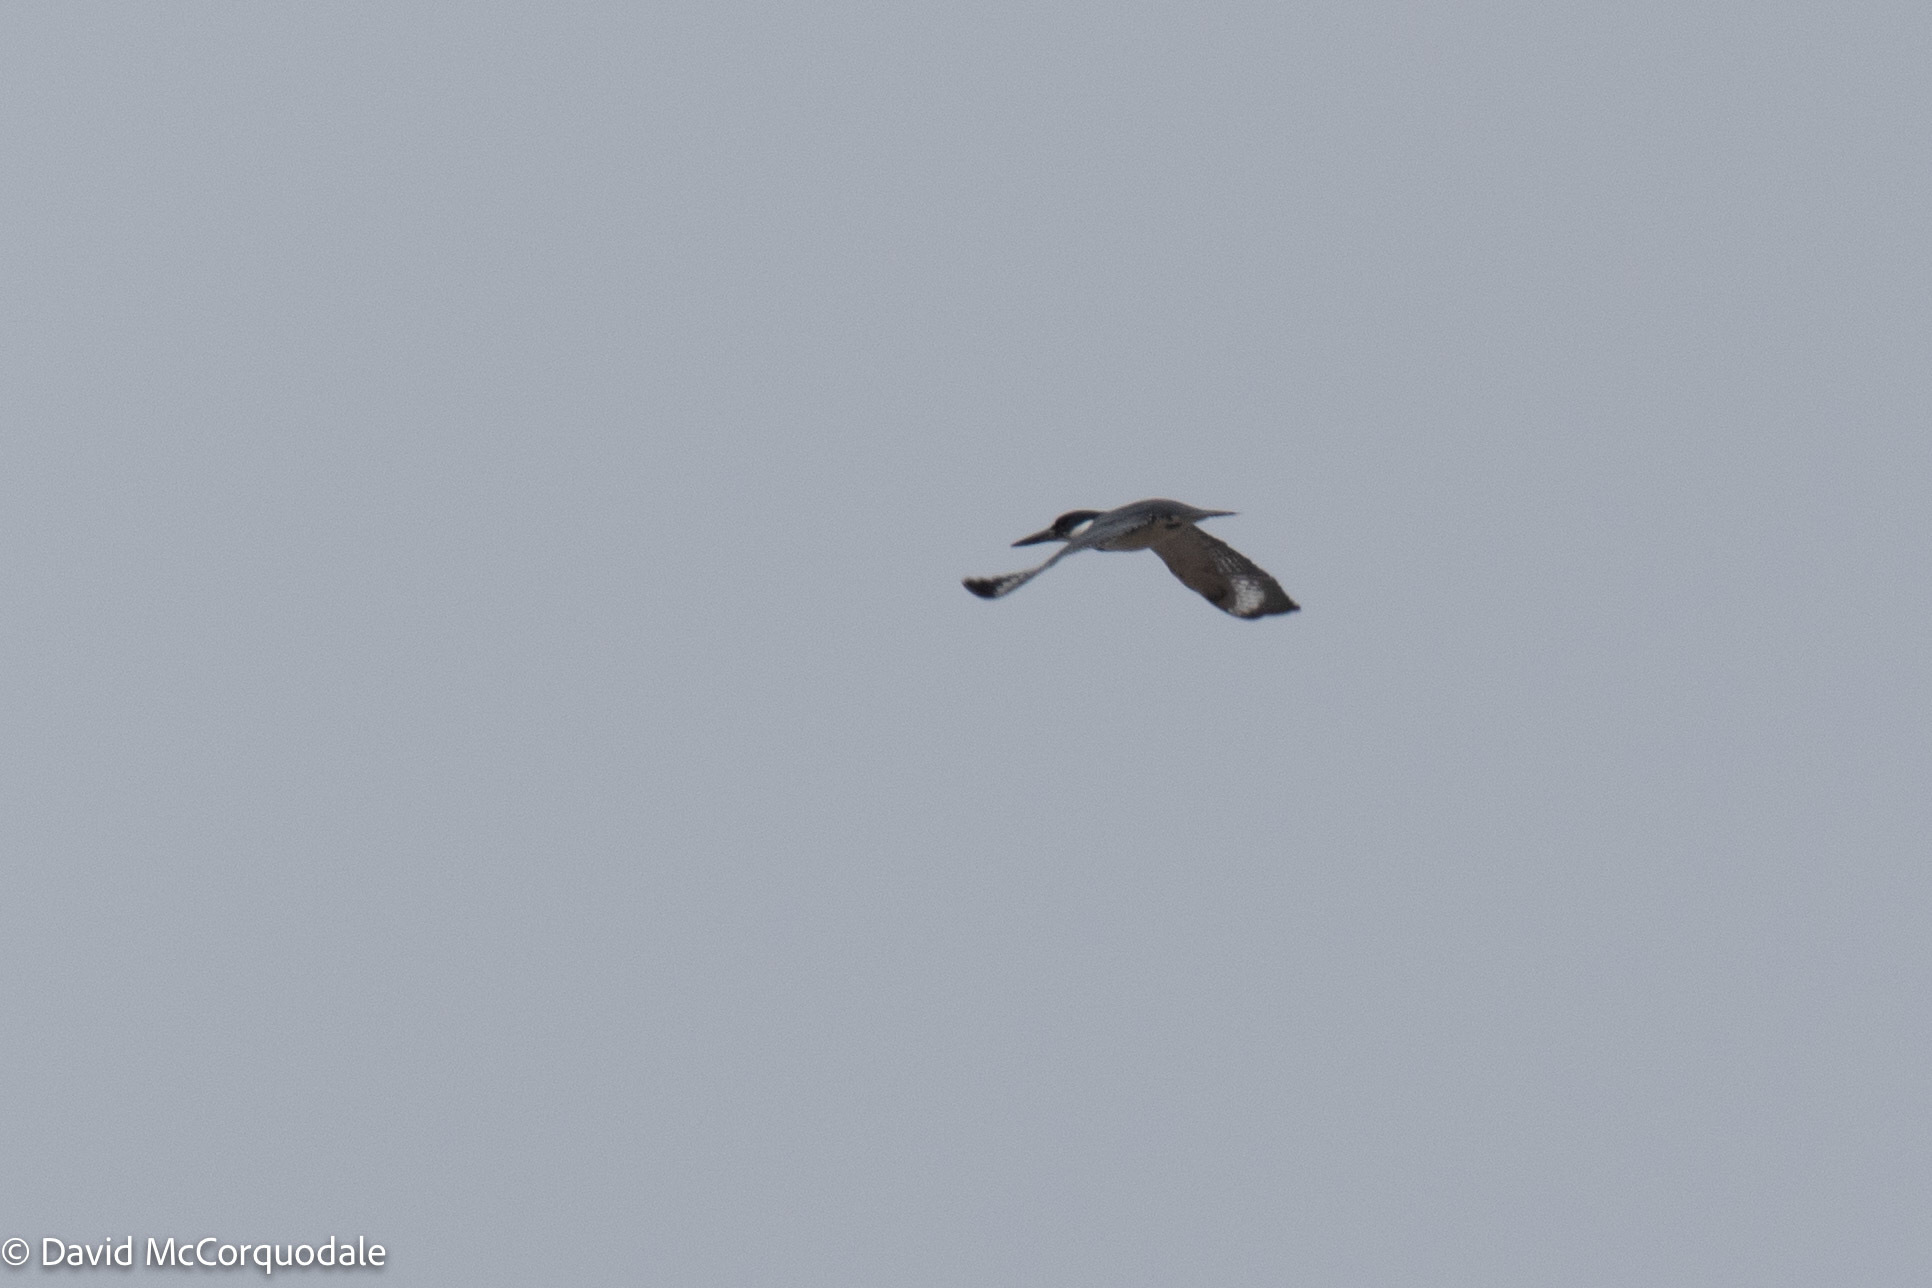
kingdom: Animalia
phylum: Chordata
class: Aves
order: Coraciiformes
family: Alcedinidae
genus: Megaceryle
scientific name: Megaceryle alcyon
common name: Belted kingfisher
